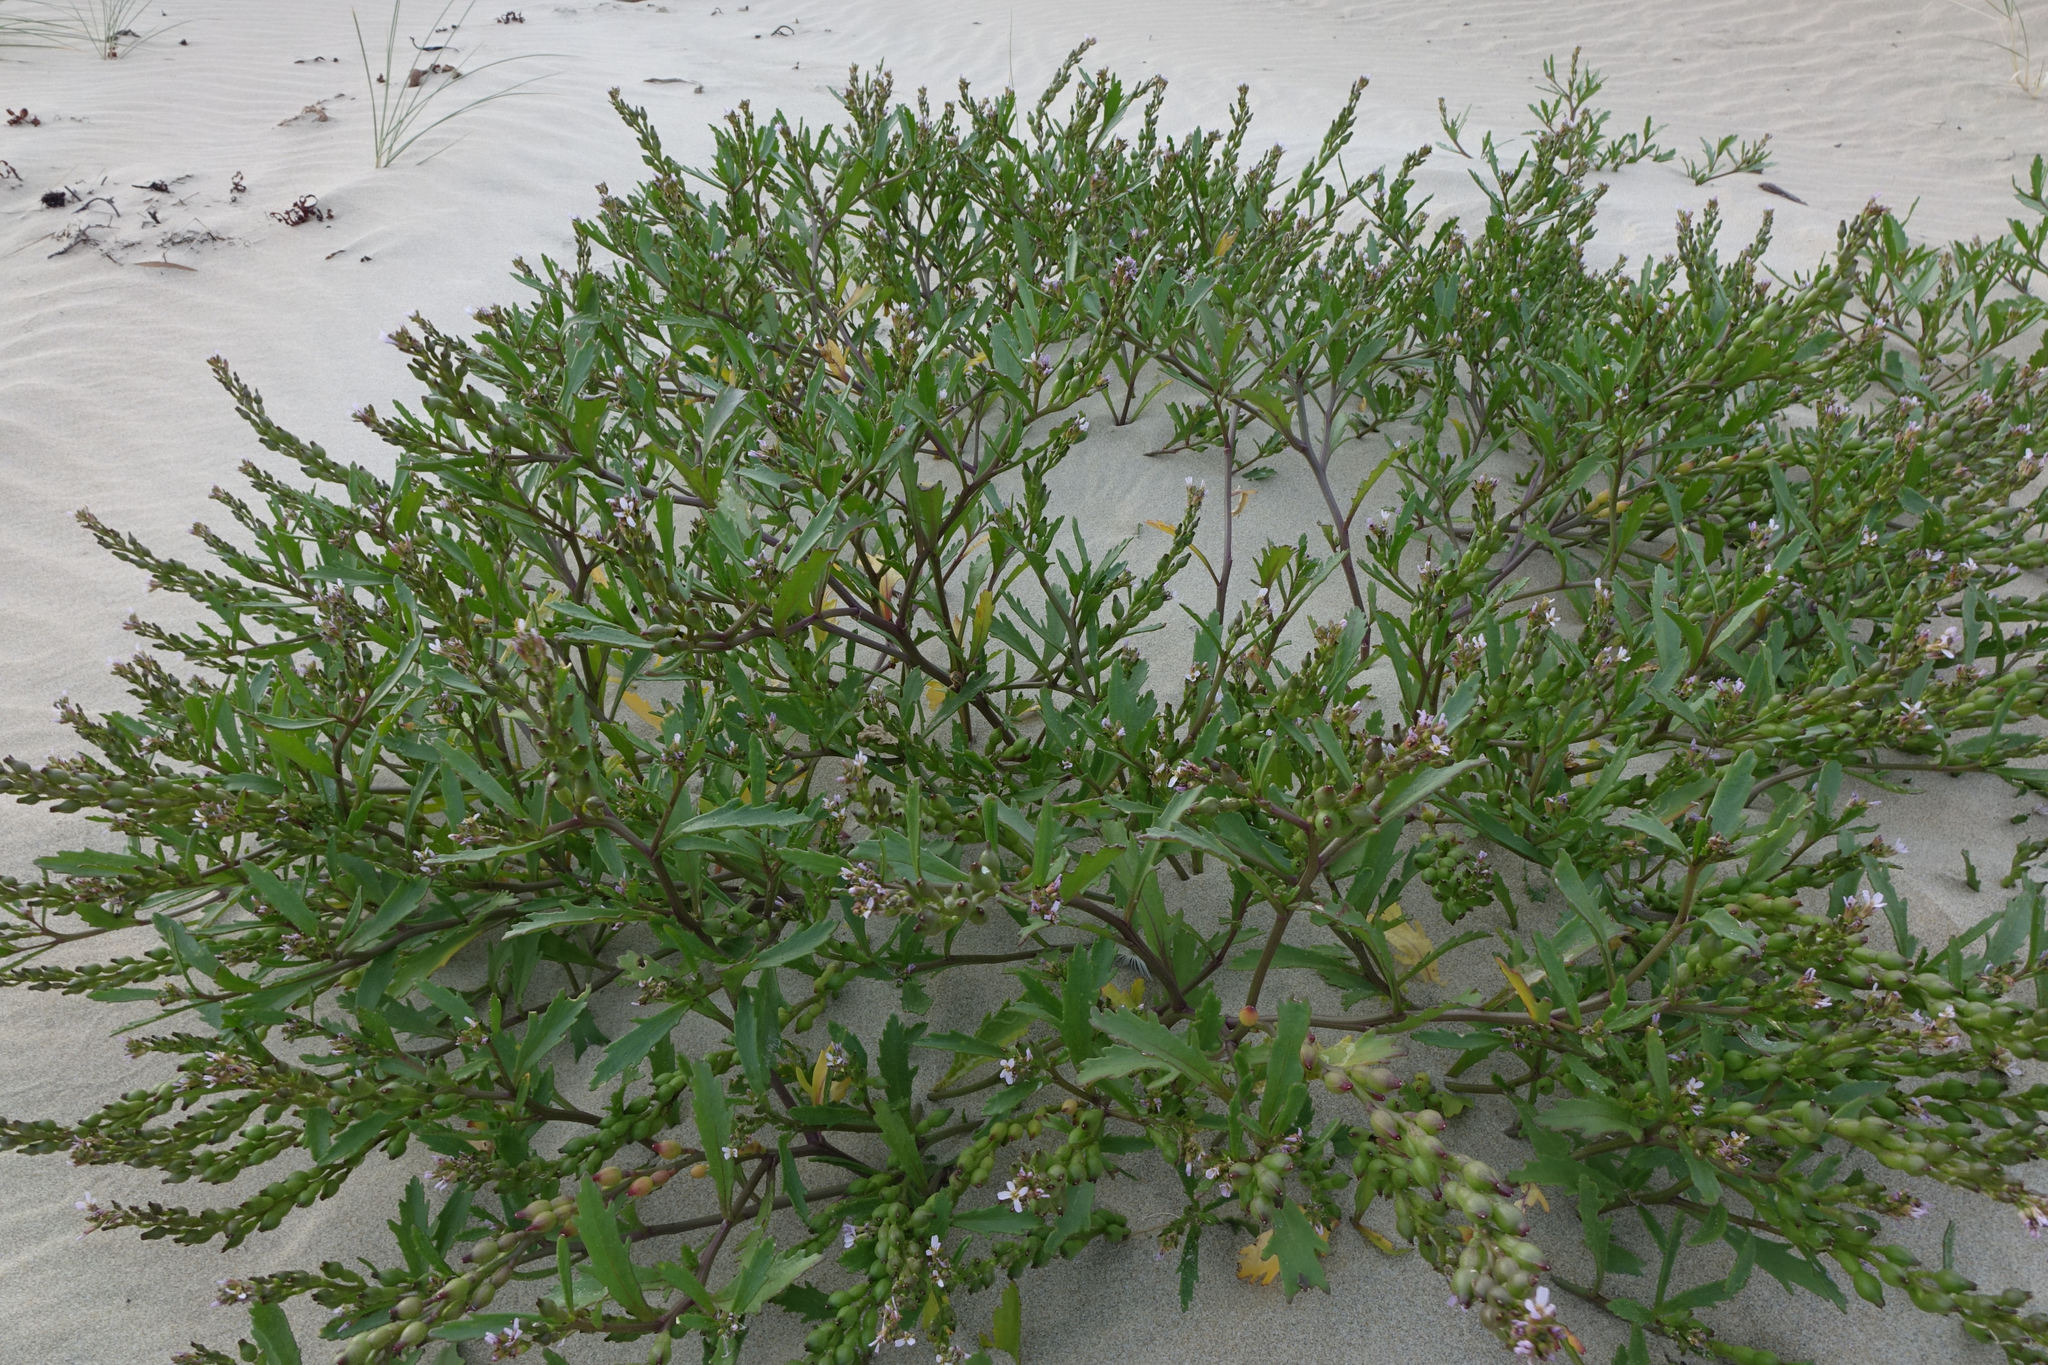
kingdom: Plantae
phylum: Tracheophyta
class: Magnoliopsida
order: Brassicales
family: Brassicaceae
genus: Cakile
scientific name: Cakile edentula
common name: American sea rocket
